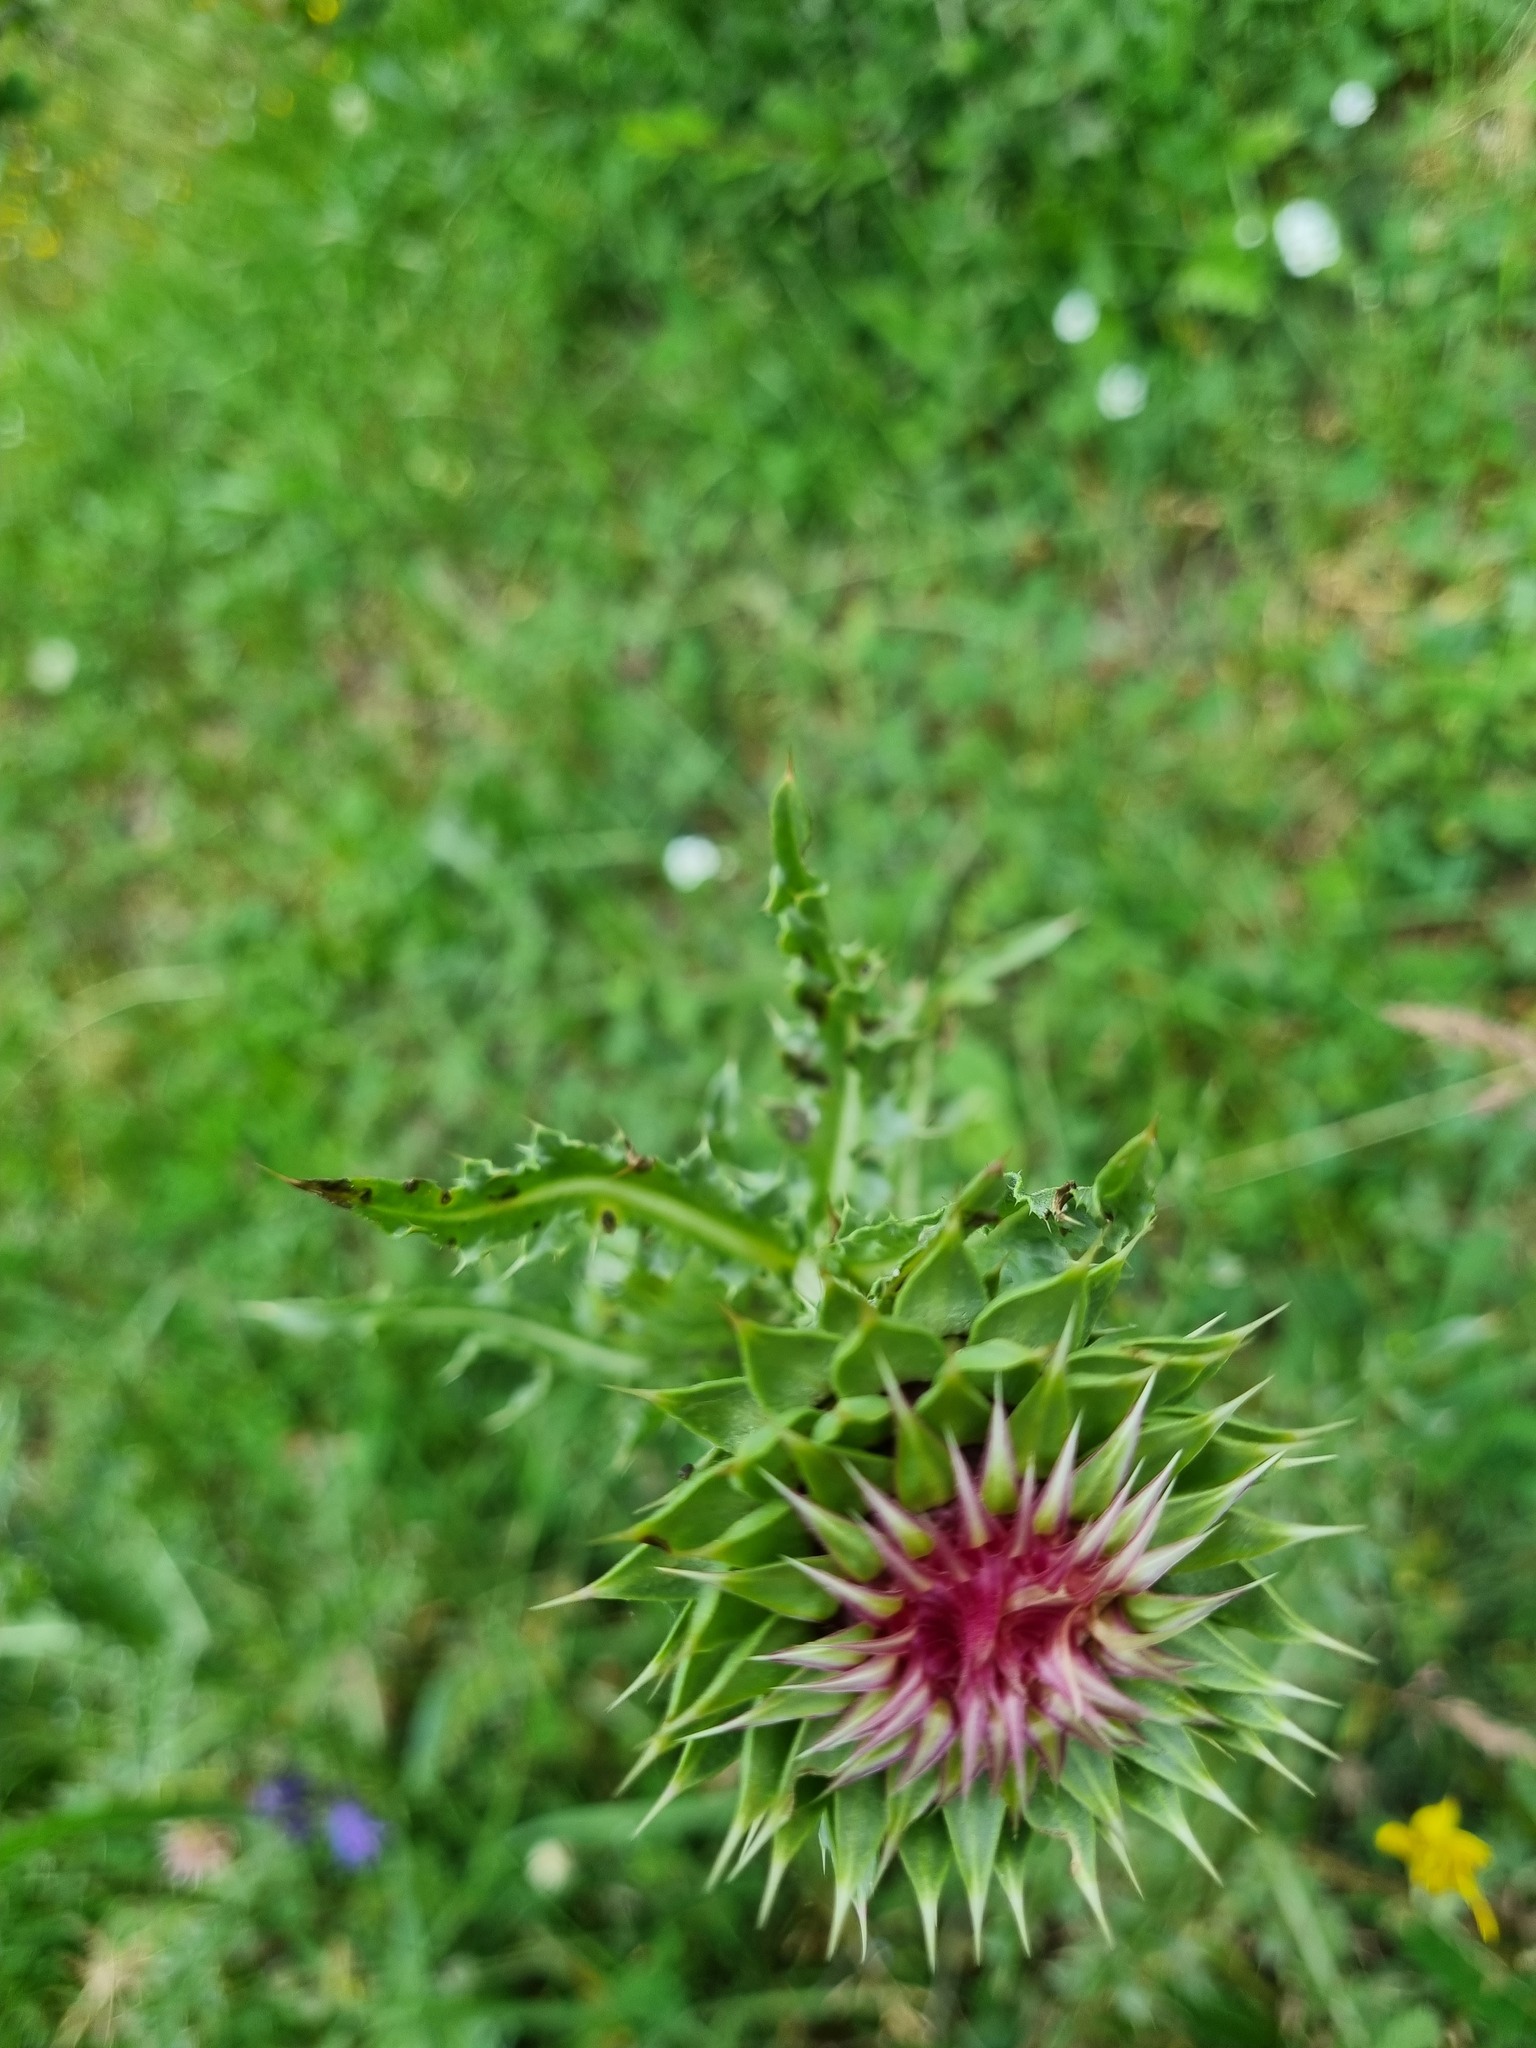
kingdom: Plantae
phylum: Tracheophyta
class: Magnoliopsida
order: Asterales
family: Asteraceae
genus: Carduus
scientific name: Carduus nutans
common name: Musk thistle
